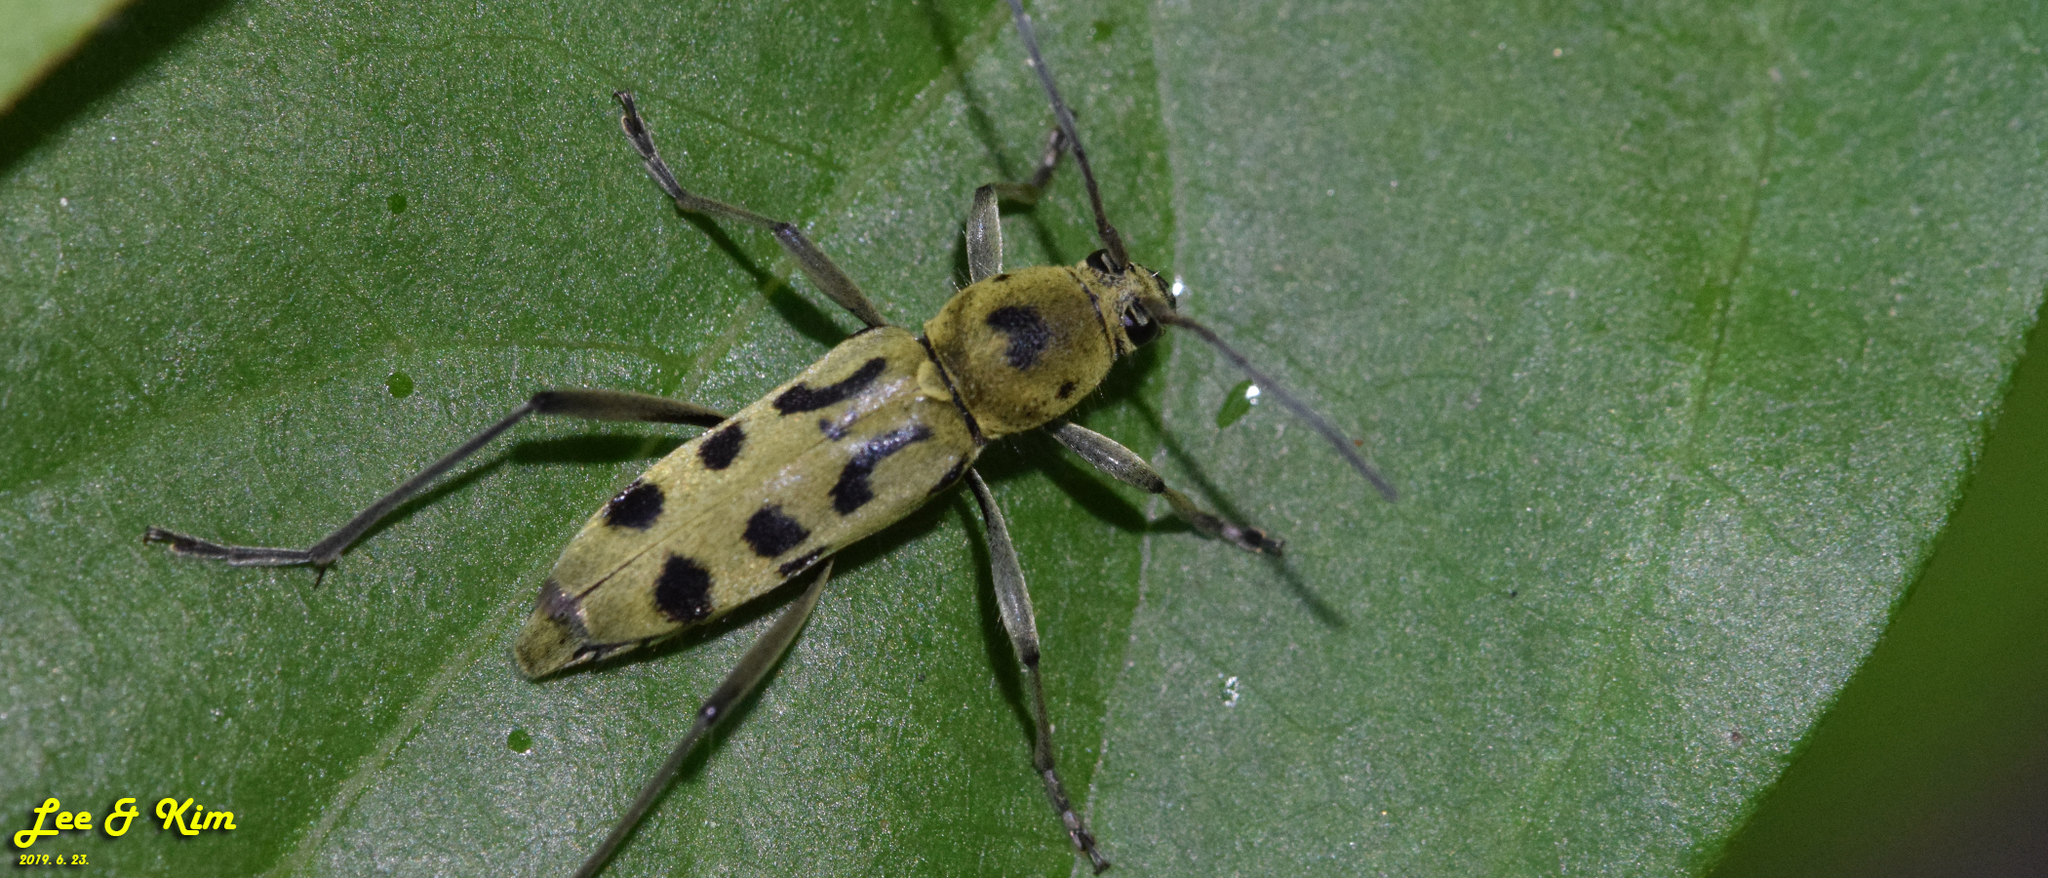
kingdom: Animalia
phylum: Arthropoda
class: Insecta
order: Coleoptera
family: Cerambycidae
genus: Chlorophorus
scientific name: Chlorophorus simillimus
